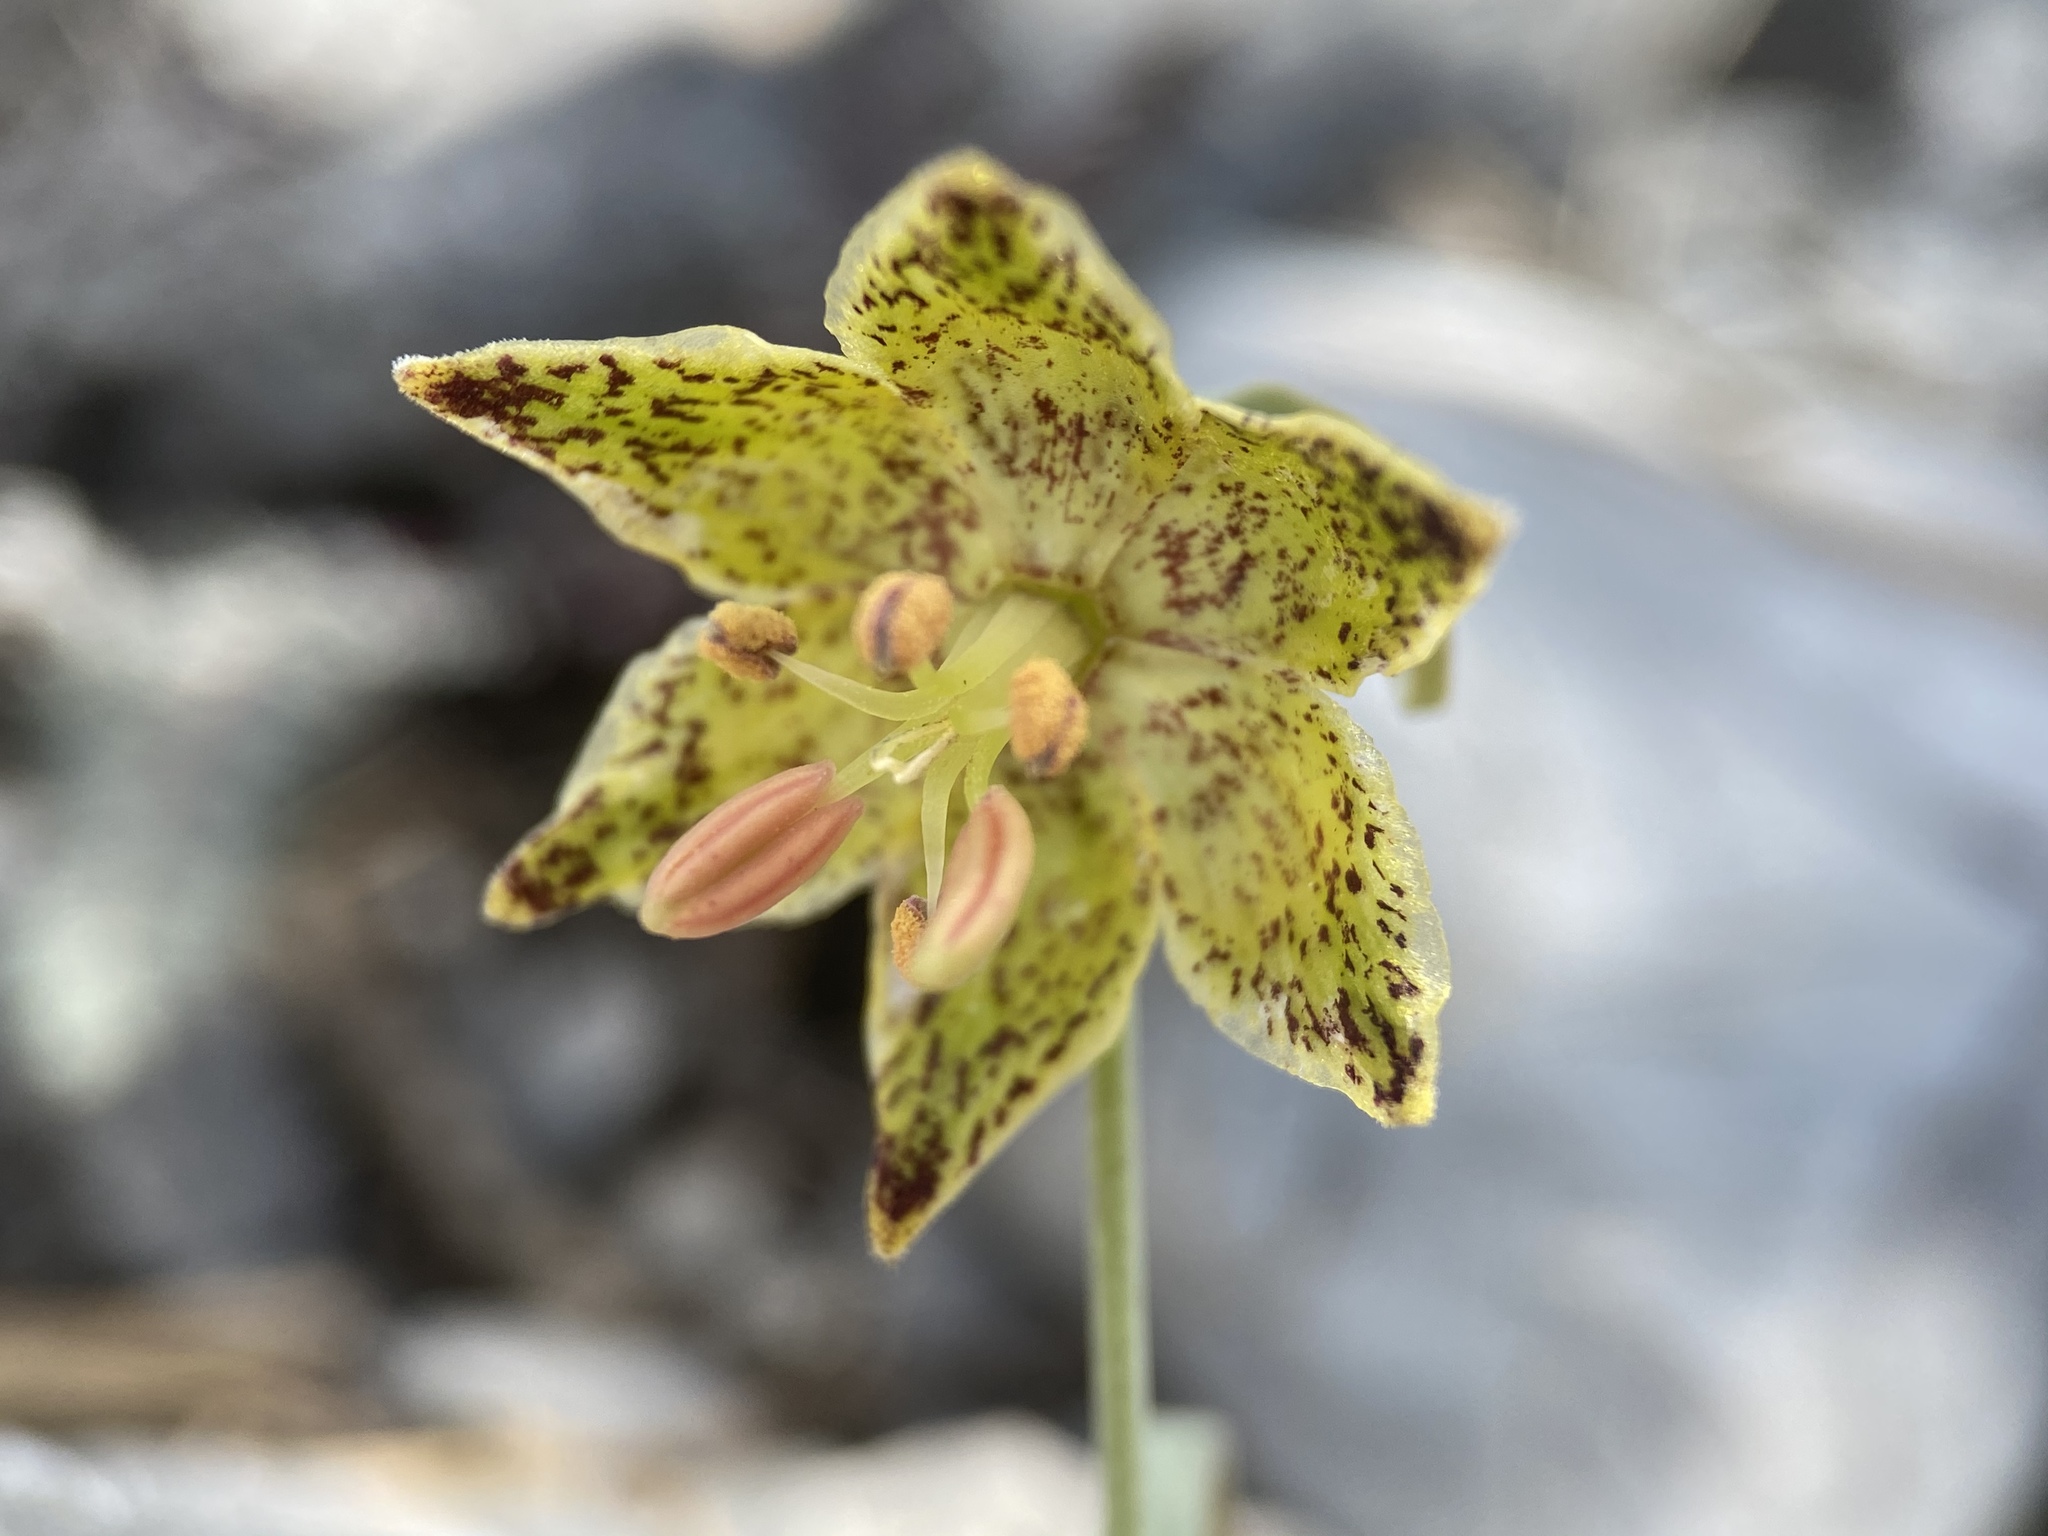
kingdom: Plantae
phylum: Tracheophyta
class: Liliopsida
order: Liliales
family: Liliaceae
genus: Fritillaria
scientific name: Fritillaria atropurpurea
